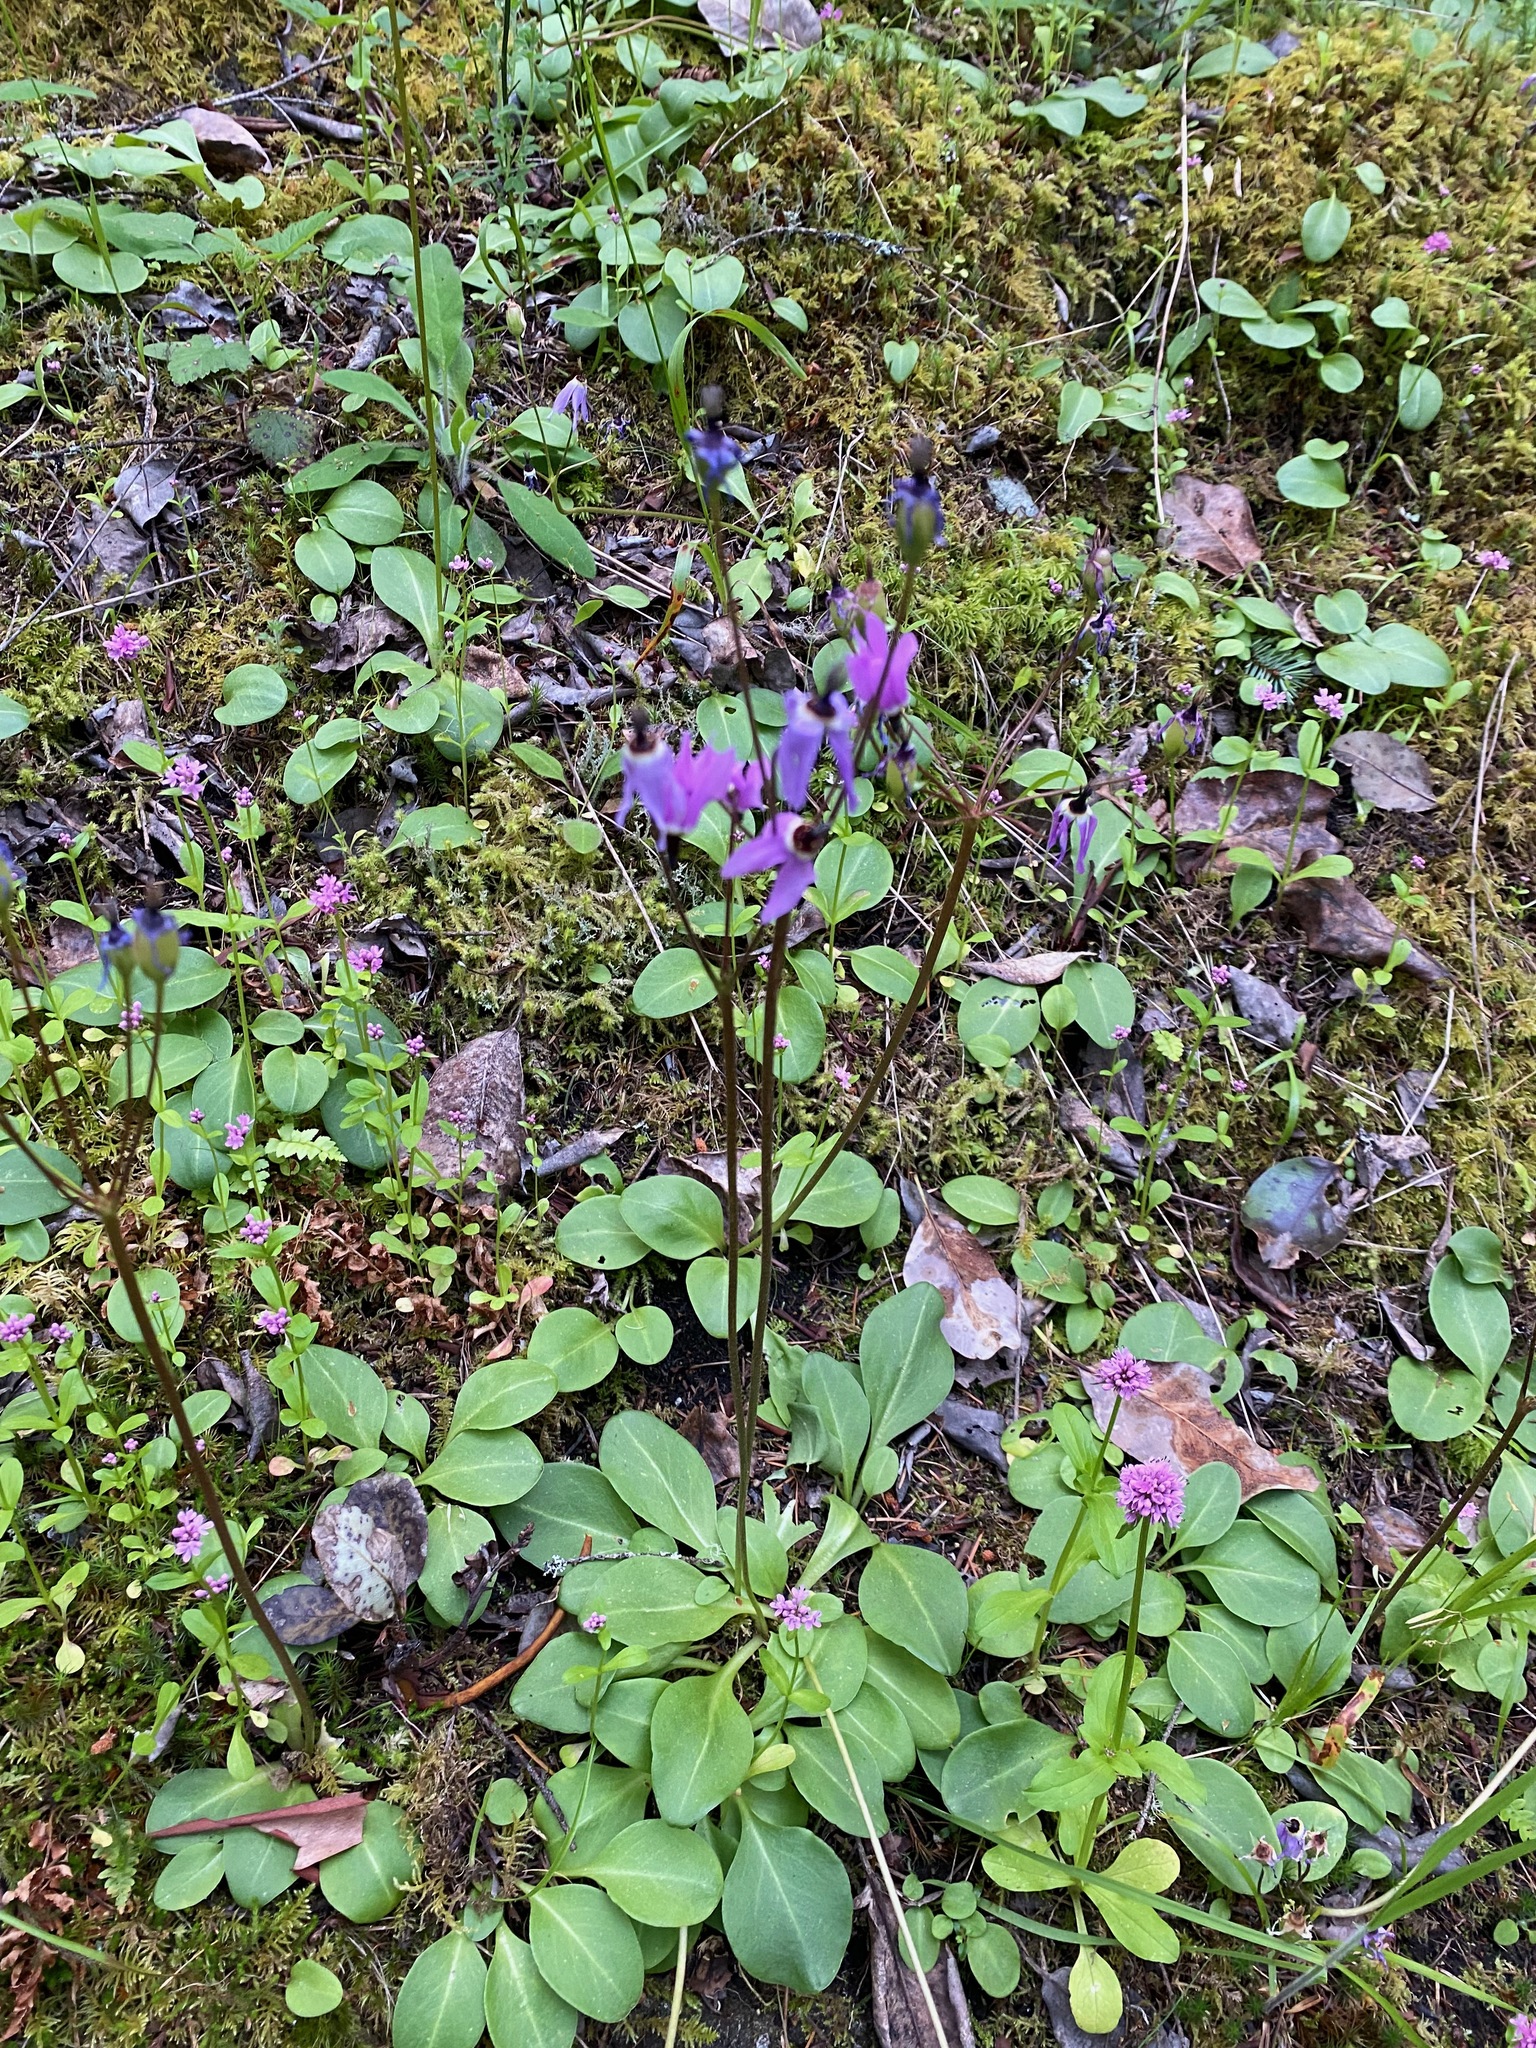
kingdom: Plantae
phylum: Tracheophyta
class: Magnoliopsida
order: Ericales
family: Primulaceae
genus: Dodecatheon
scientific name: Dodecatheon hendersonii
